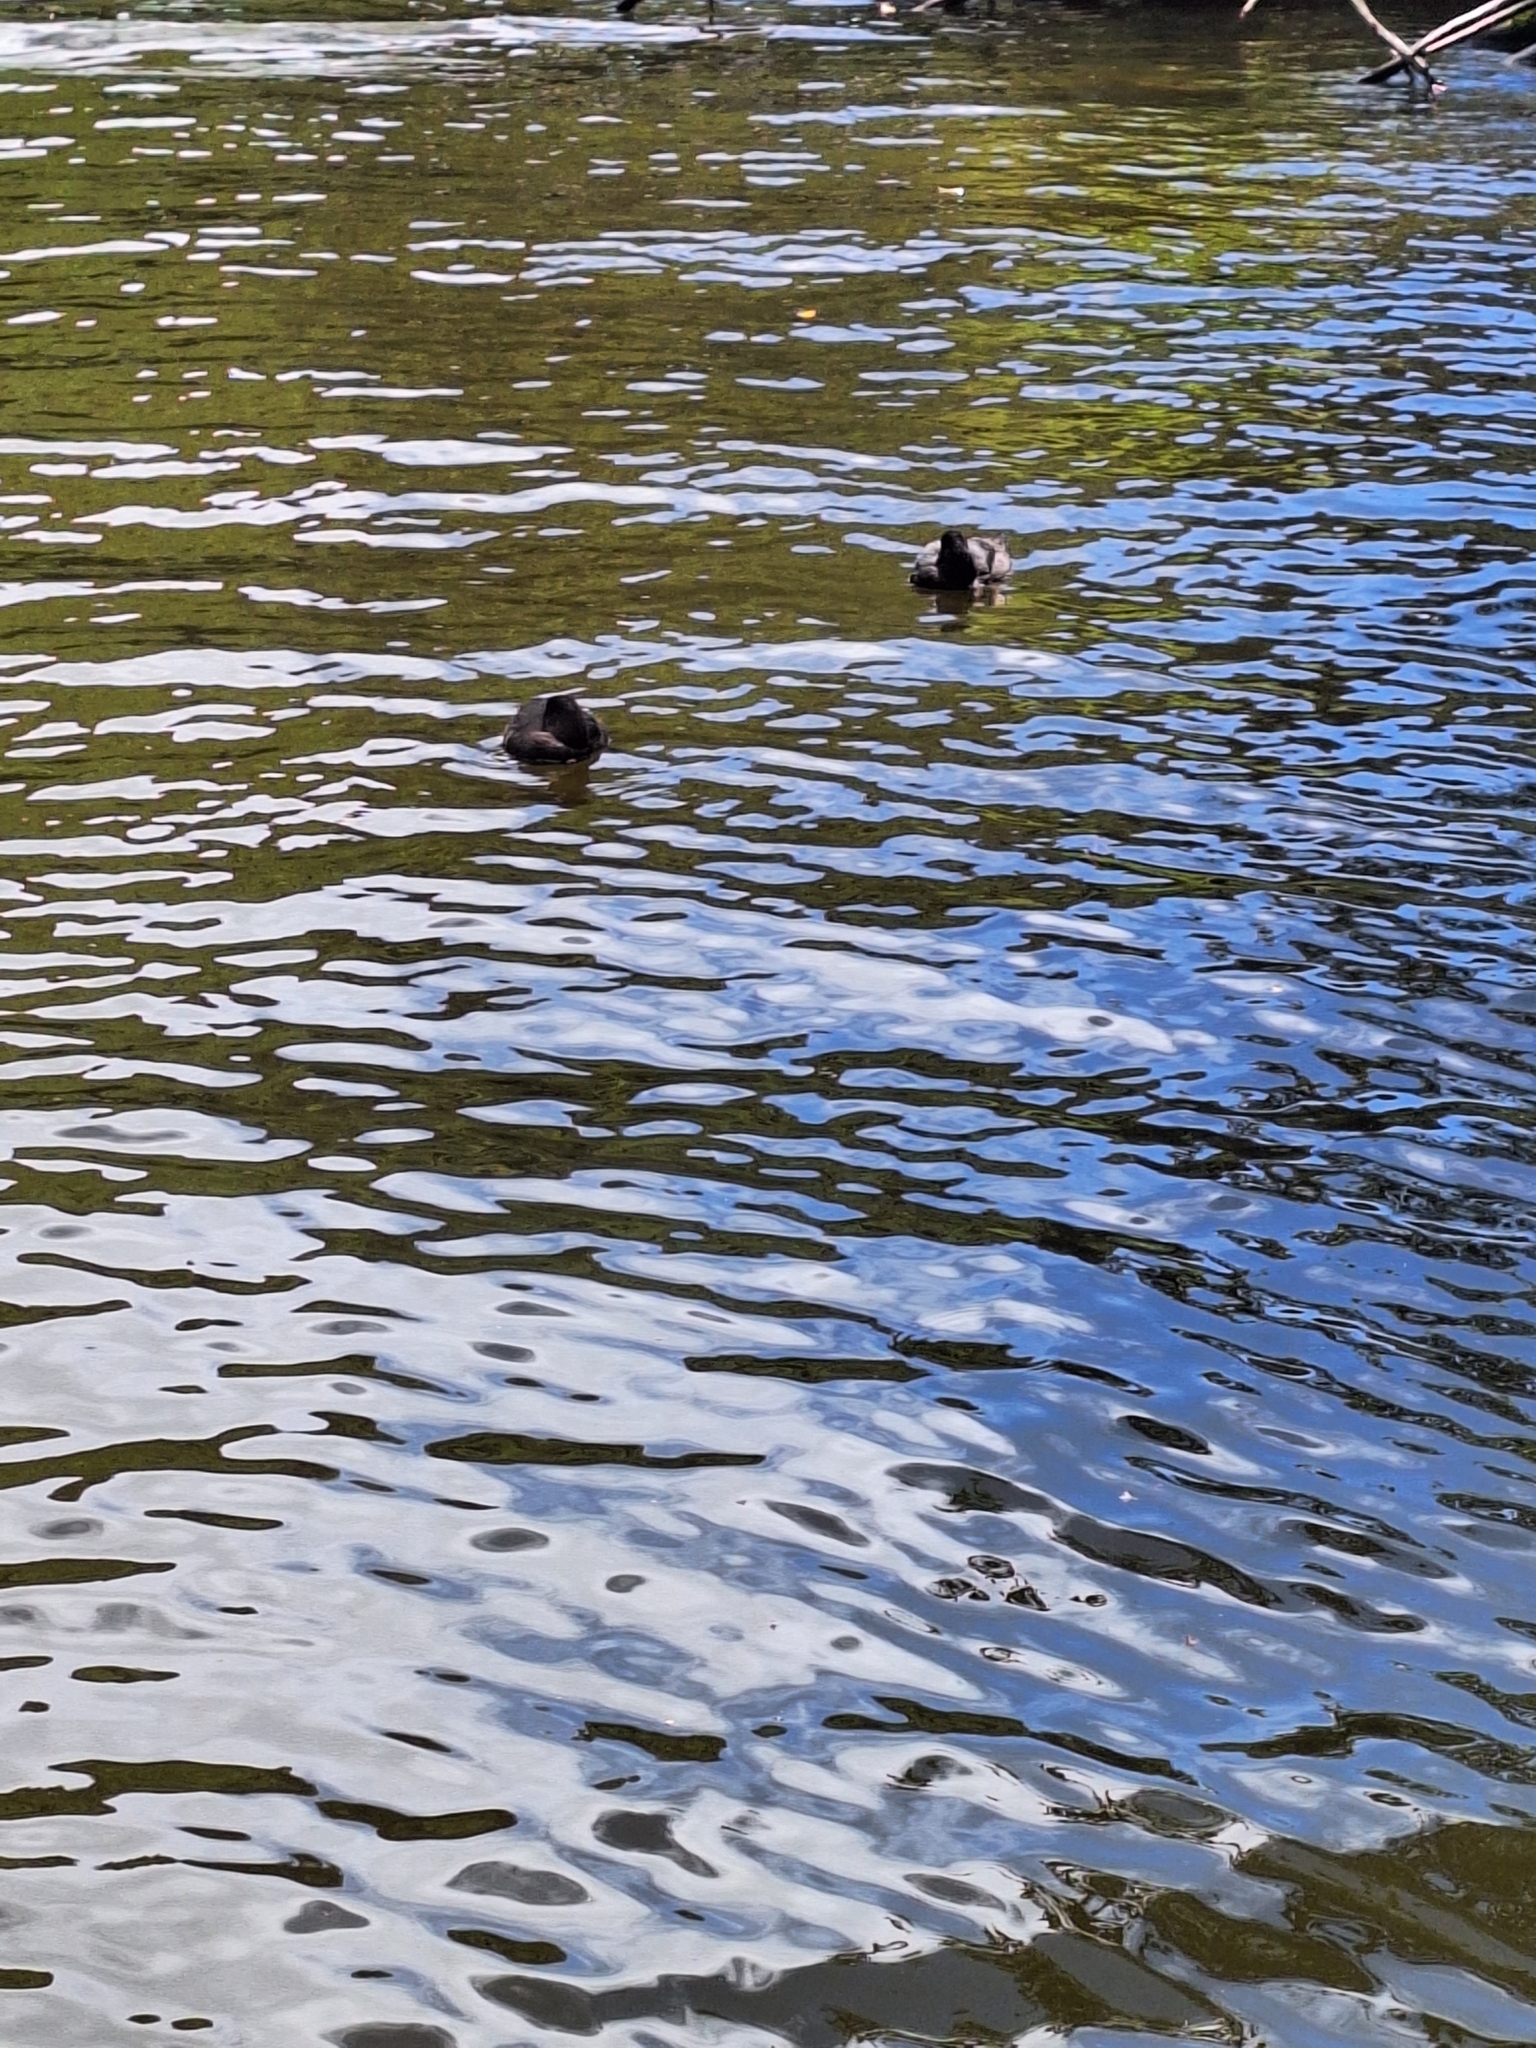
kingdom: Animalia
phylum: Chordata
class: Aves
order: Anseriformes
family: Anatidae
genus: Aythya
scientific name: Aythya novaeseelandiae
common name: New zealand scaup
